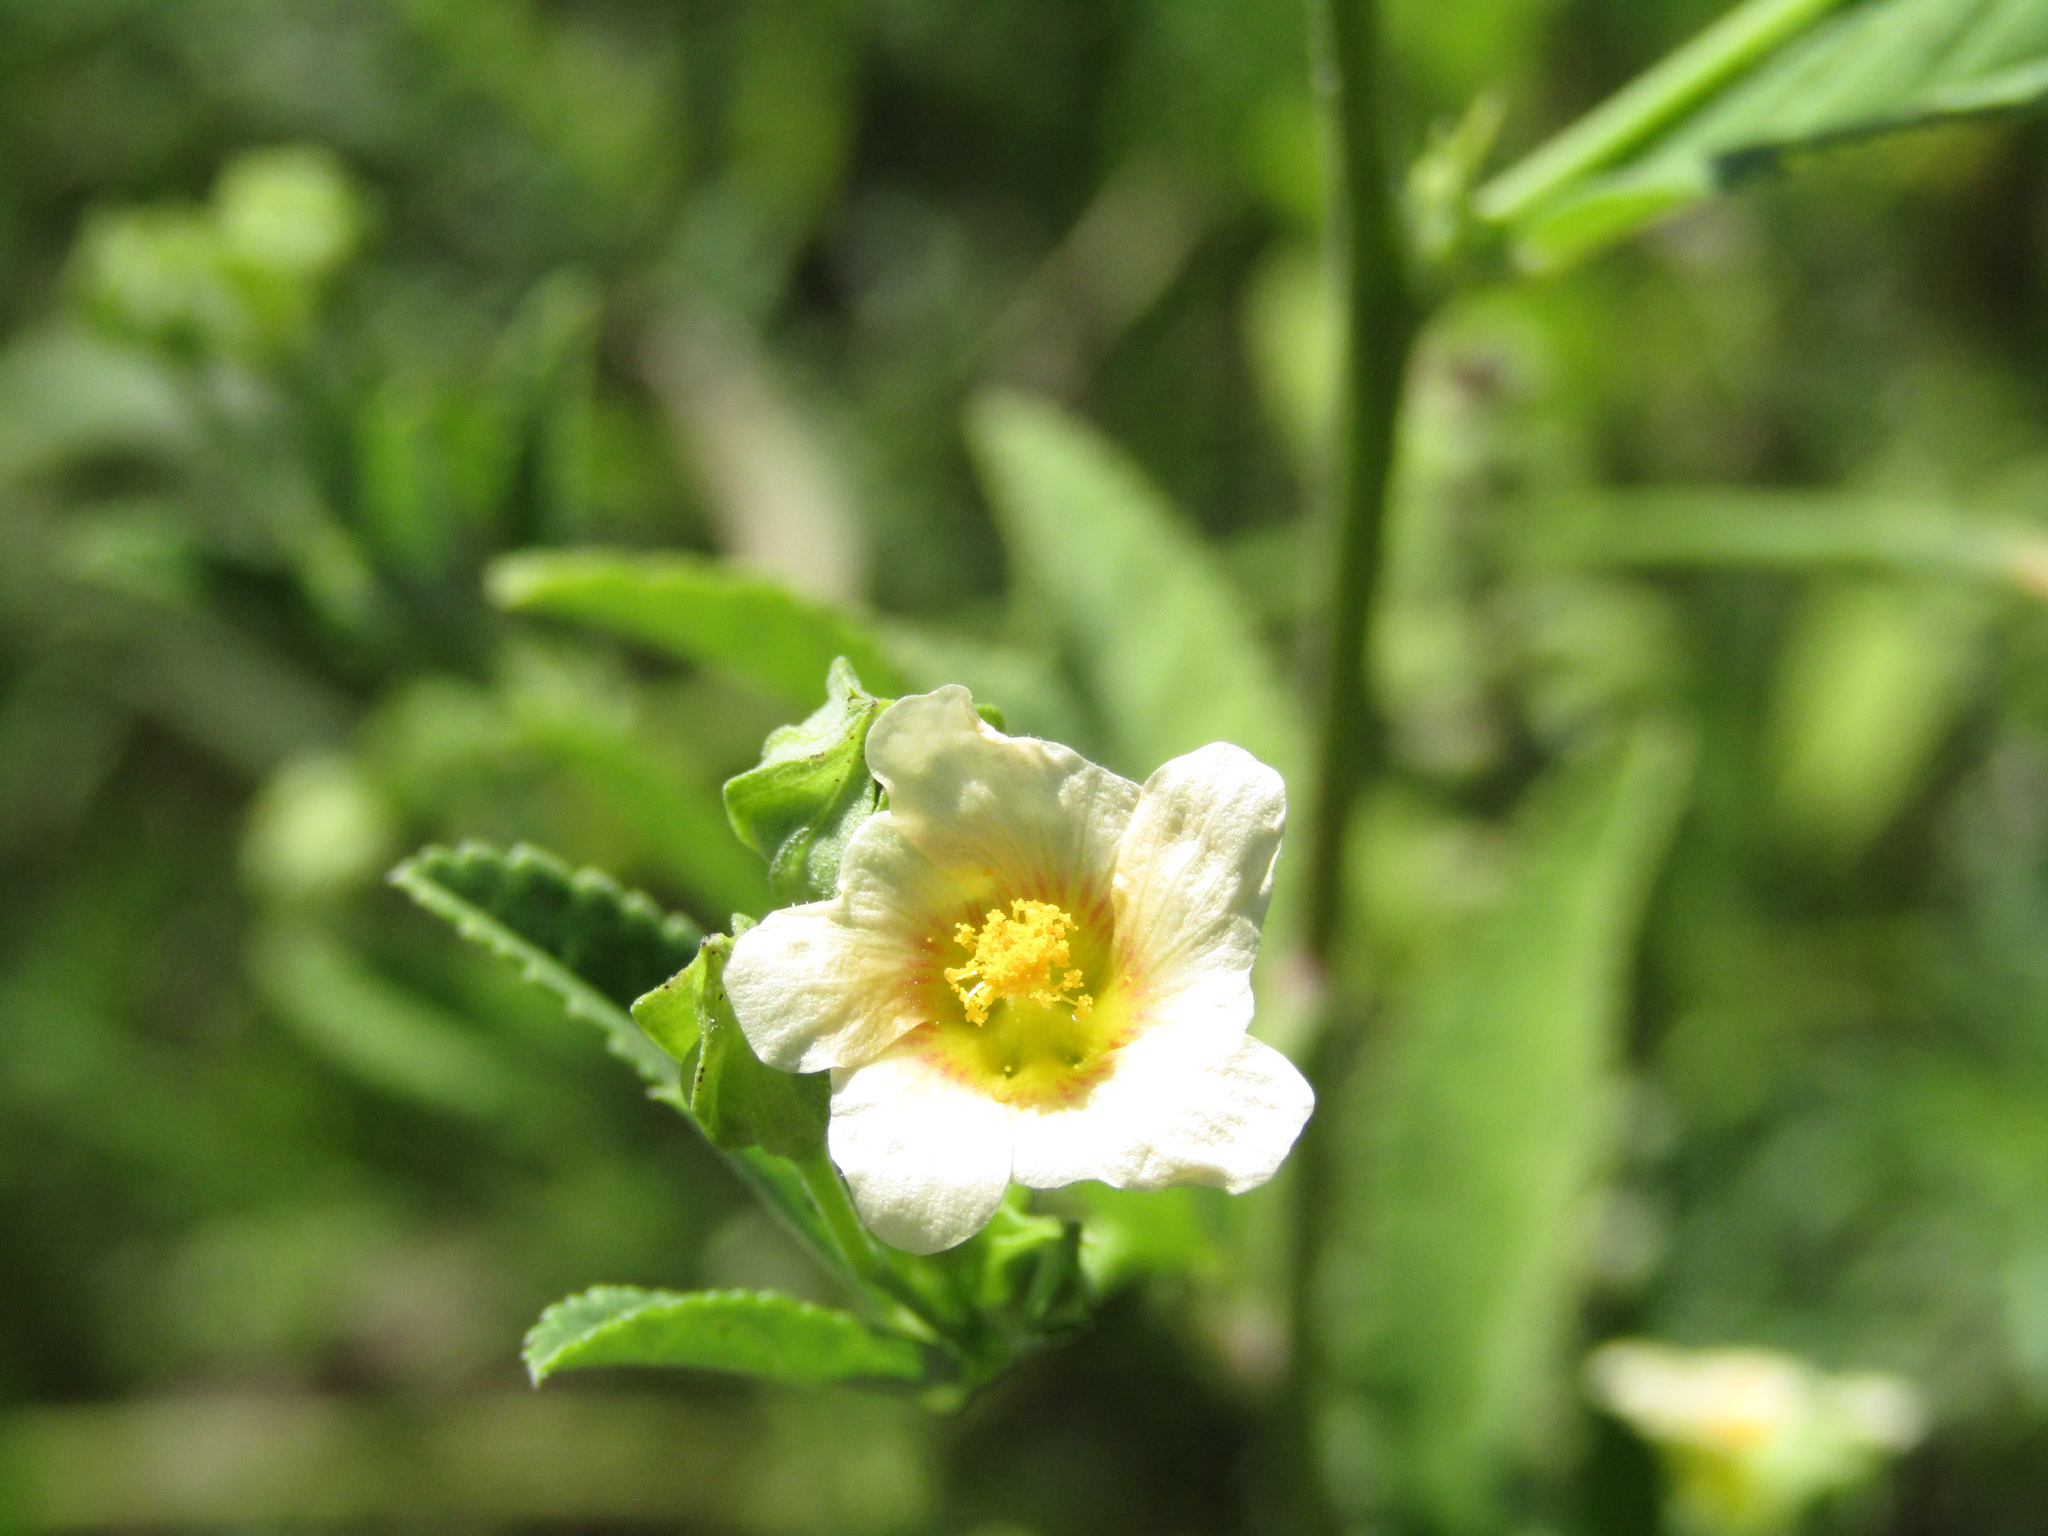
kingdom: Plantae
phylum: Tracheophyta
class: Magnoliopsida
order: Malvales
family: Malvaceae
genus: Sida
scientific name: Sida rhombifolia
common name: Queensland-hemp
